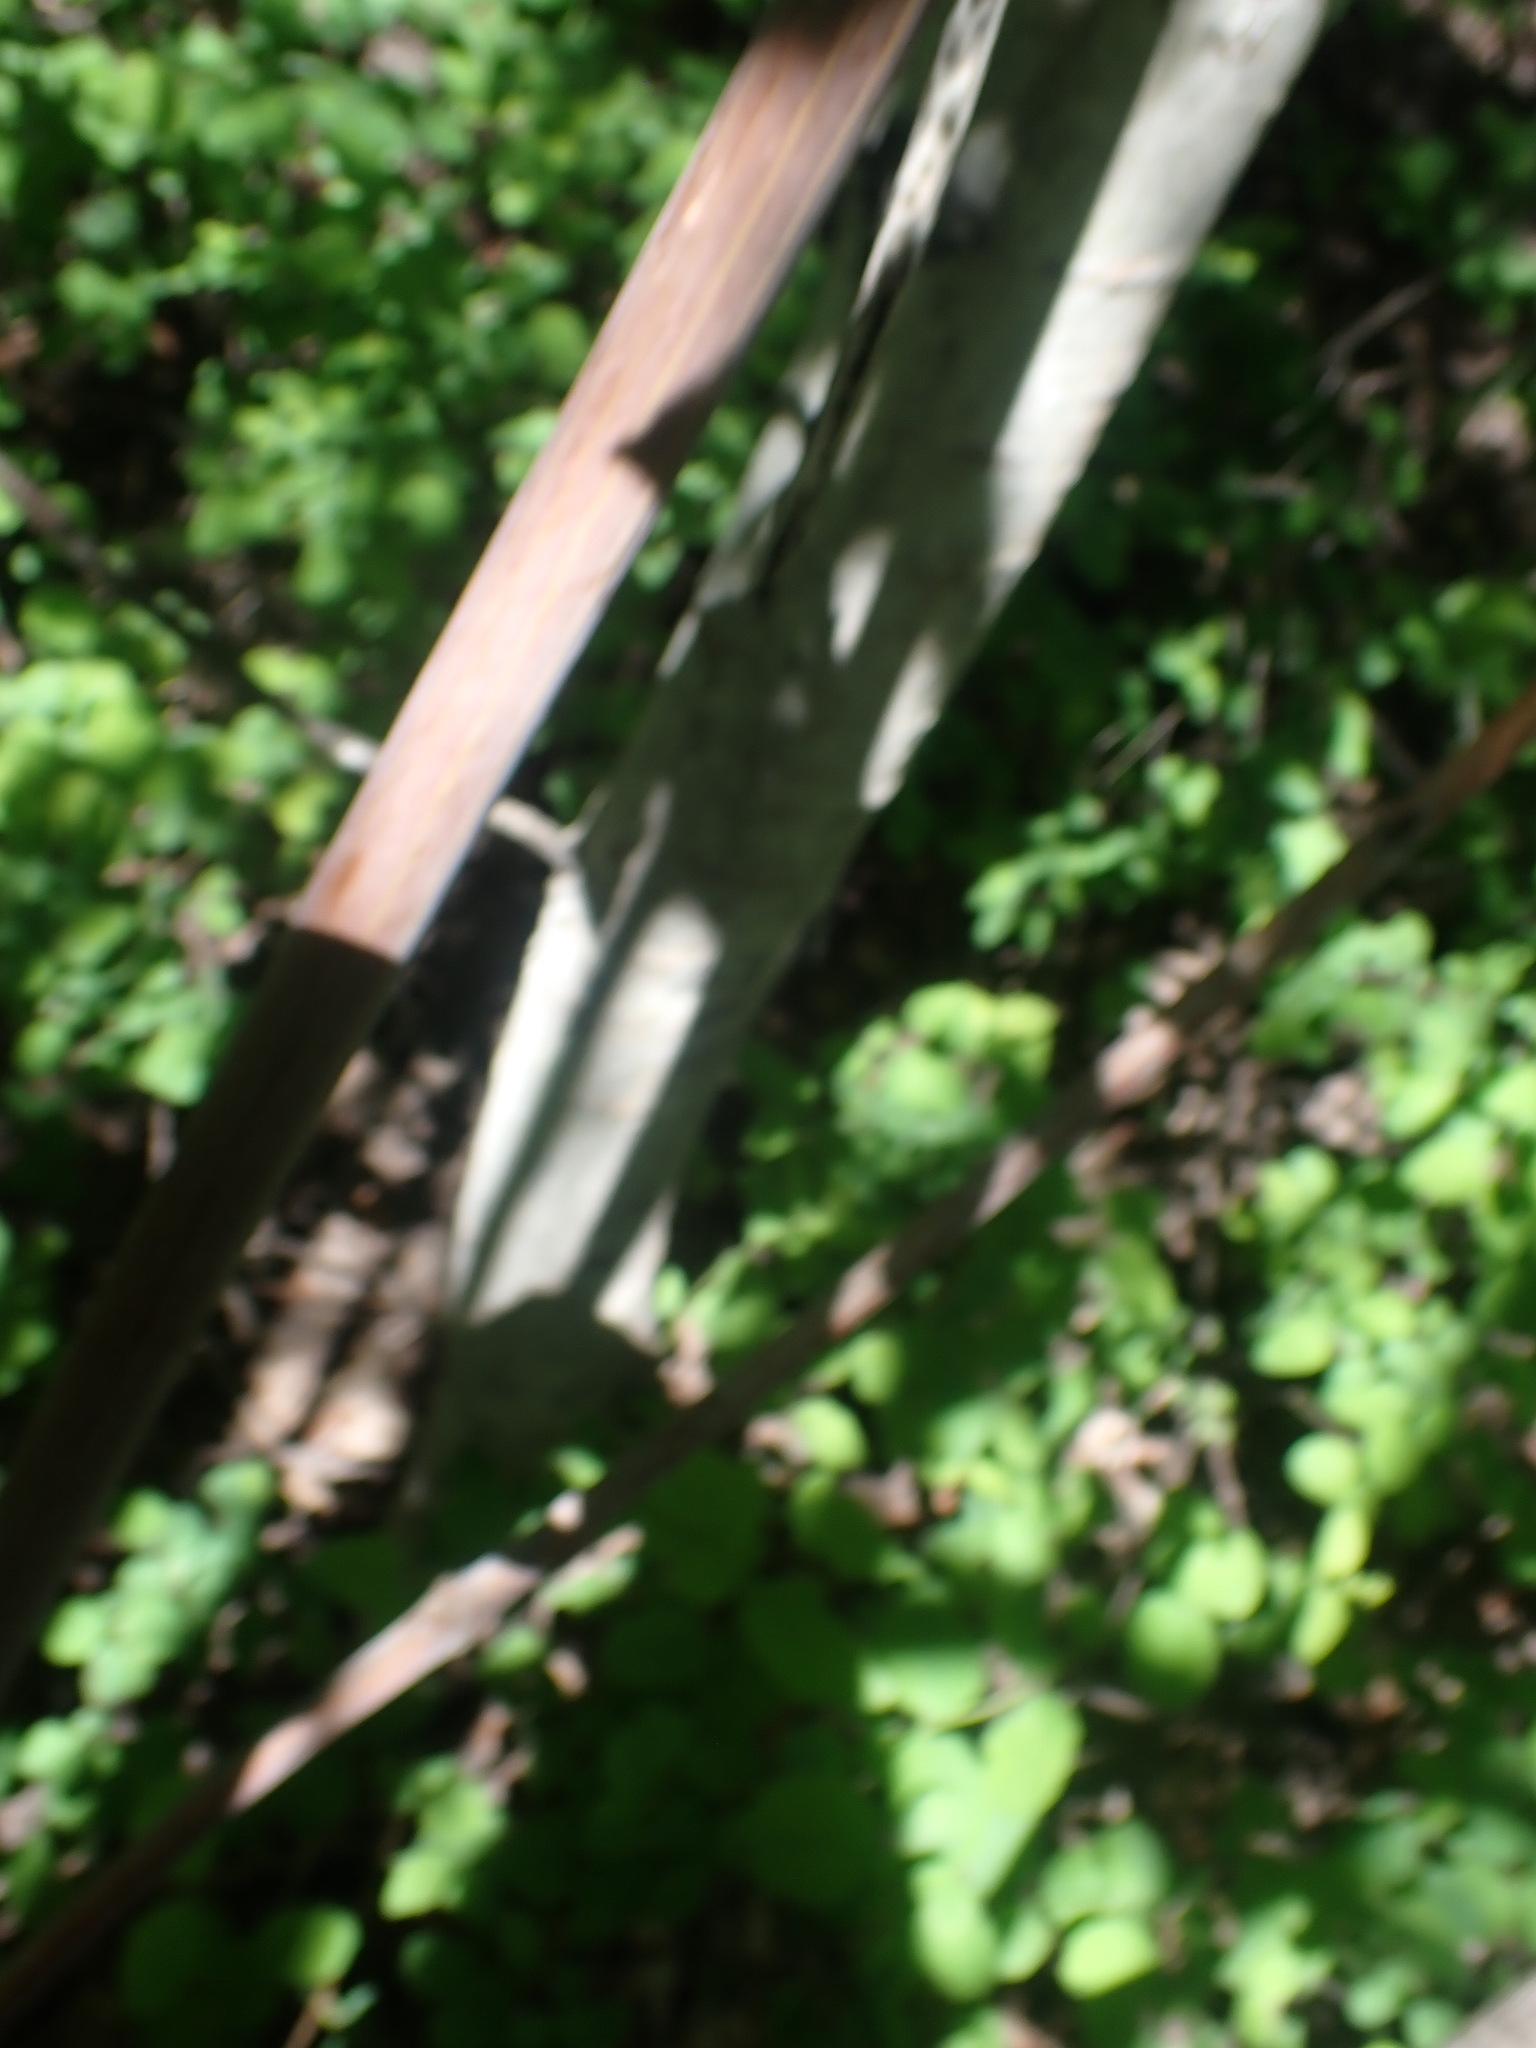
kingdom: Plantae
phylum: Tracheophyta
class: Magnoliopsida
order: Dipsacales
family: Viburnaceae
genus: Sambucus
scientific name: Sambucus cerulea
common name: Blue elder
